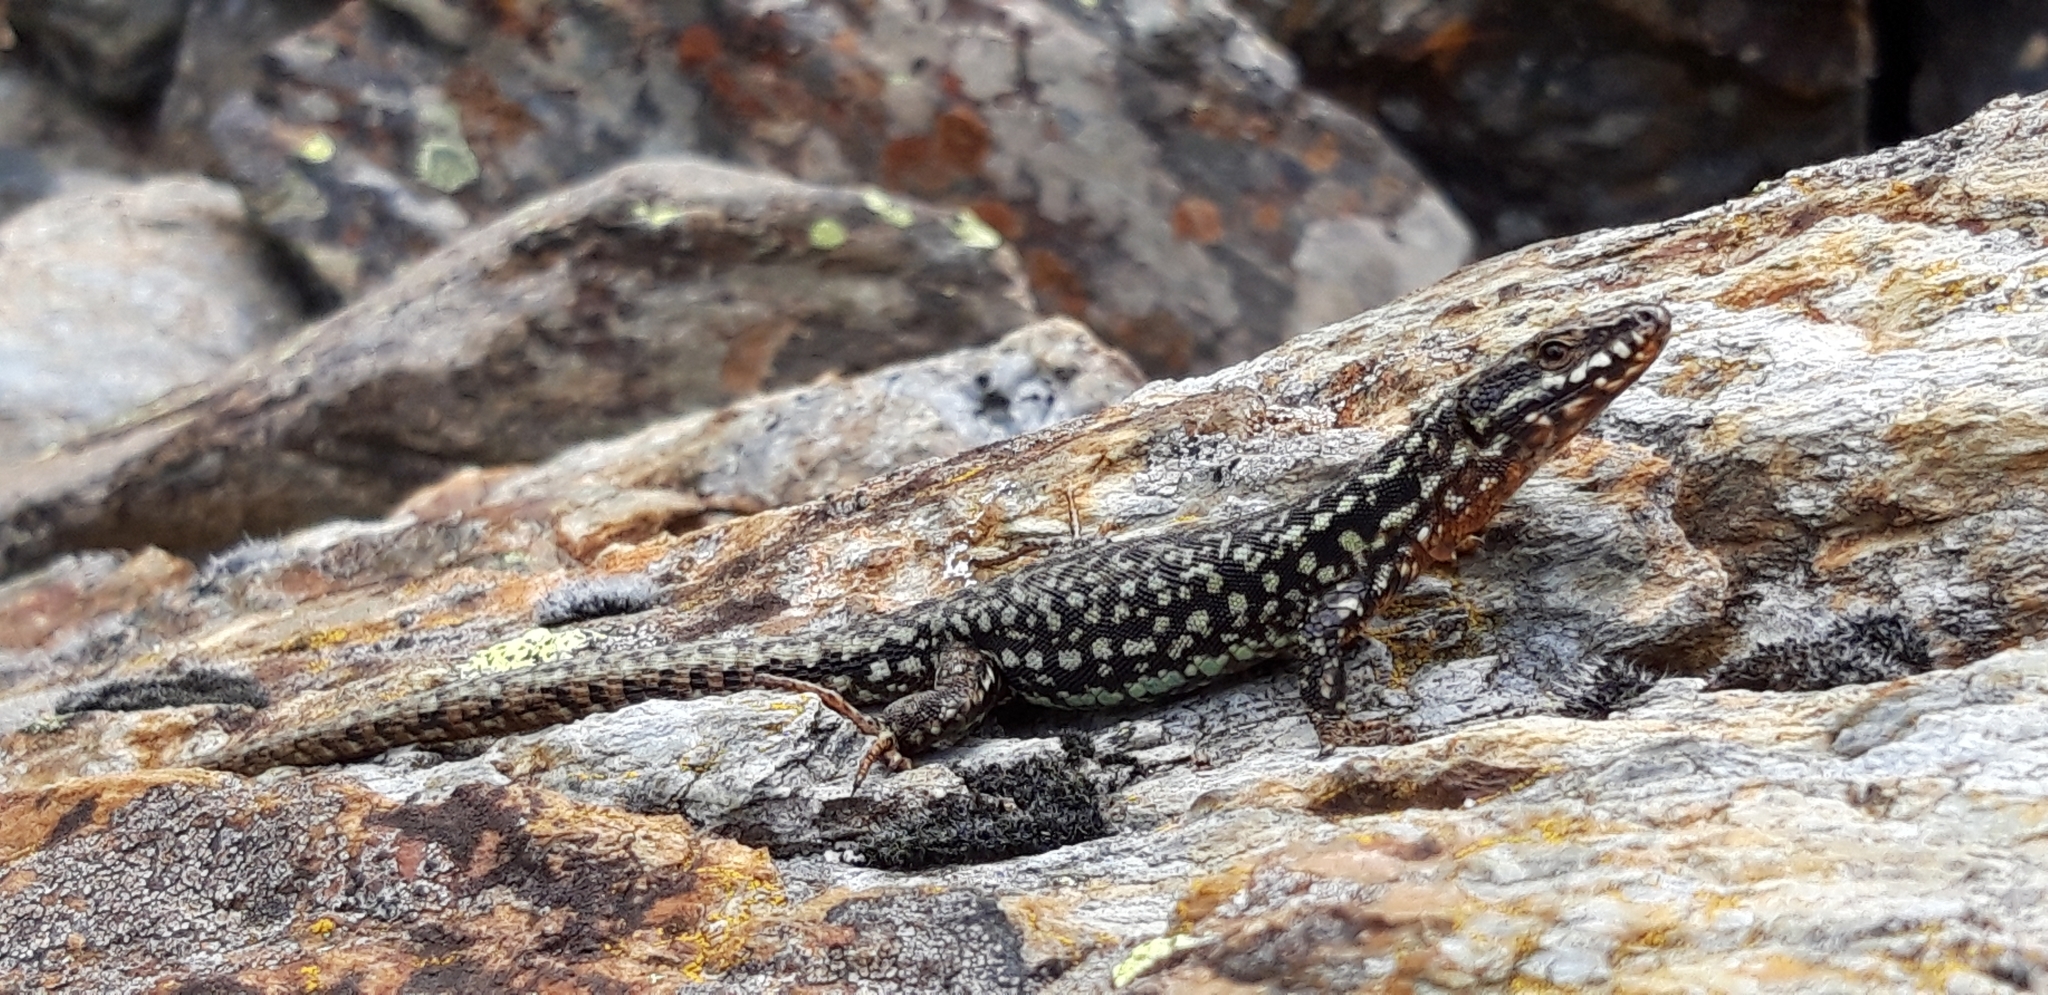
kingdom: Animalia
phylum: Chordata
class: Squamata
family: Lacertidae
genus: Podarcis
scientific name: Podarcis muralis
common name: Common wall lizard
